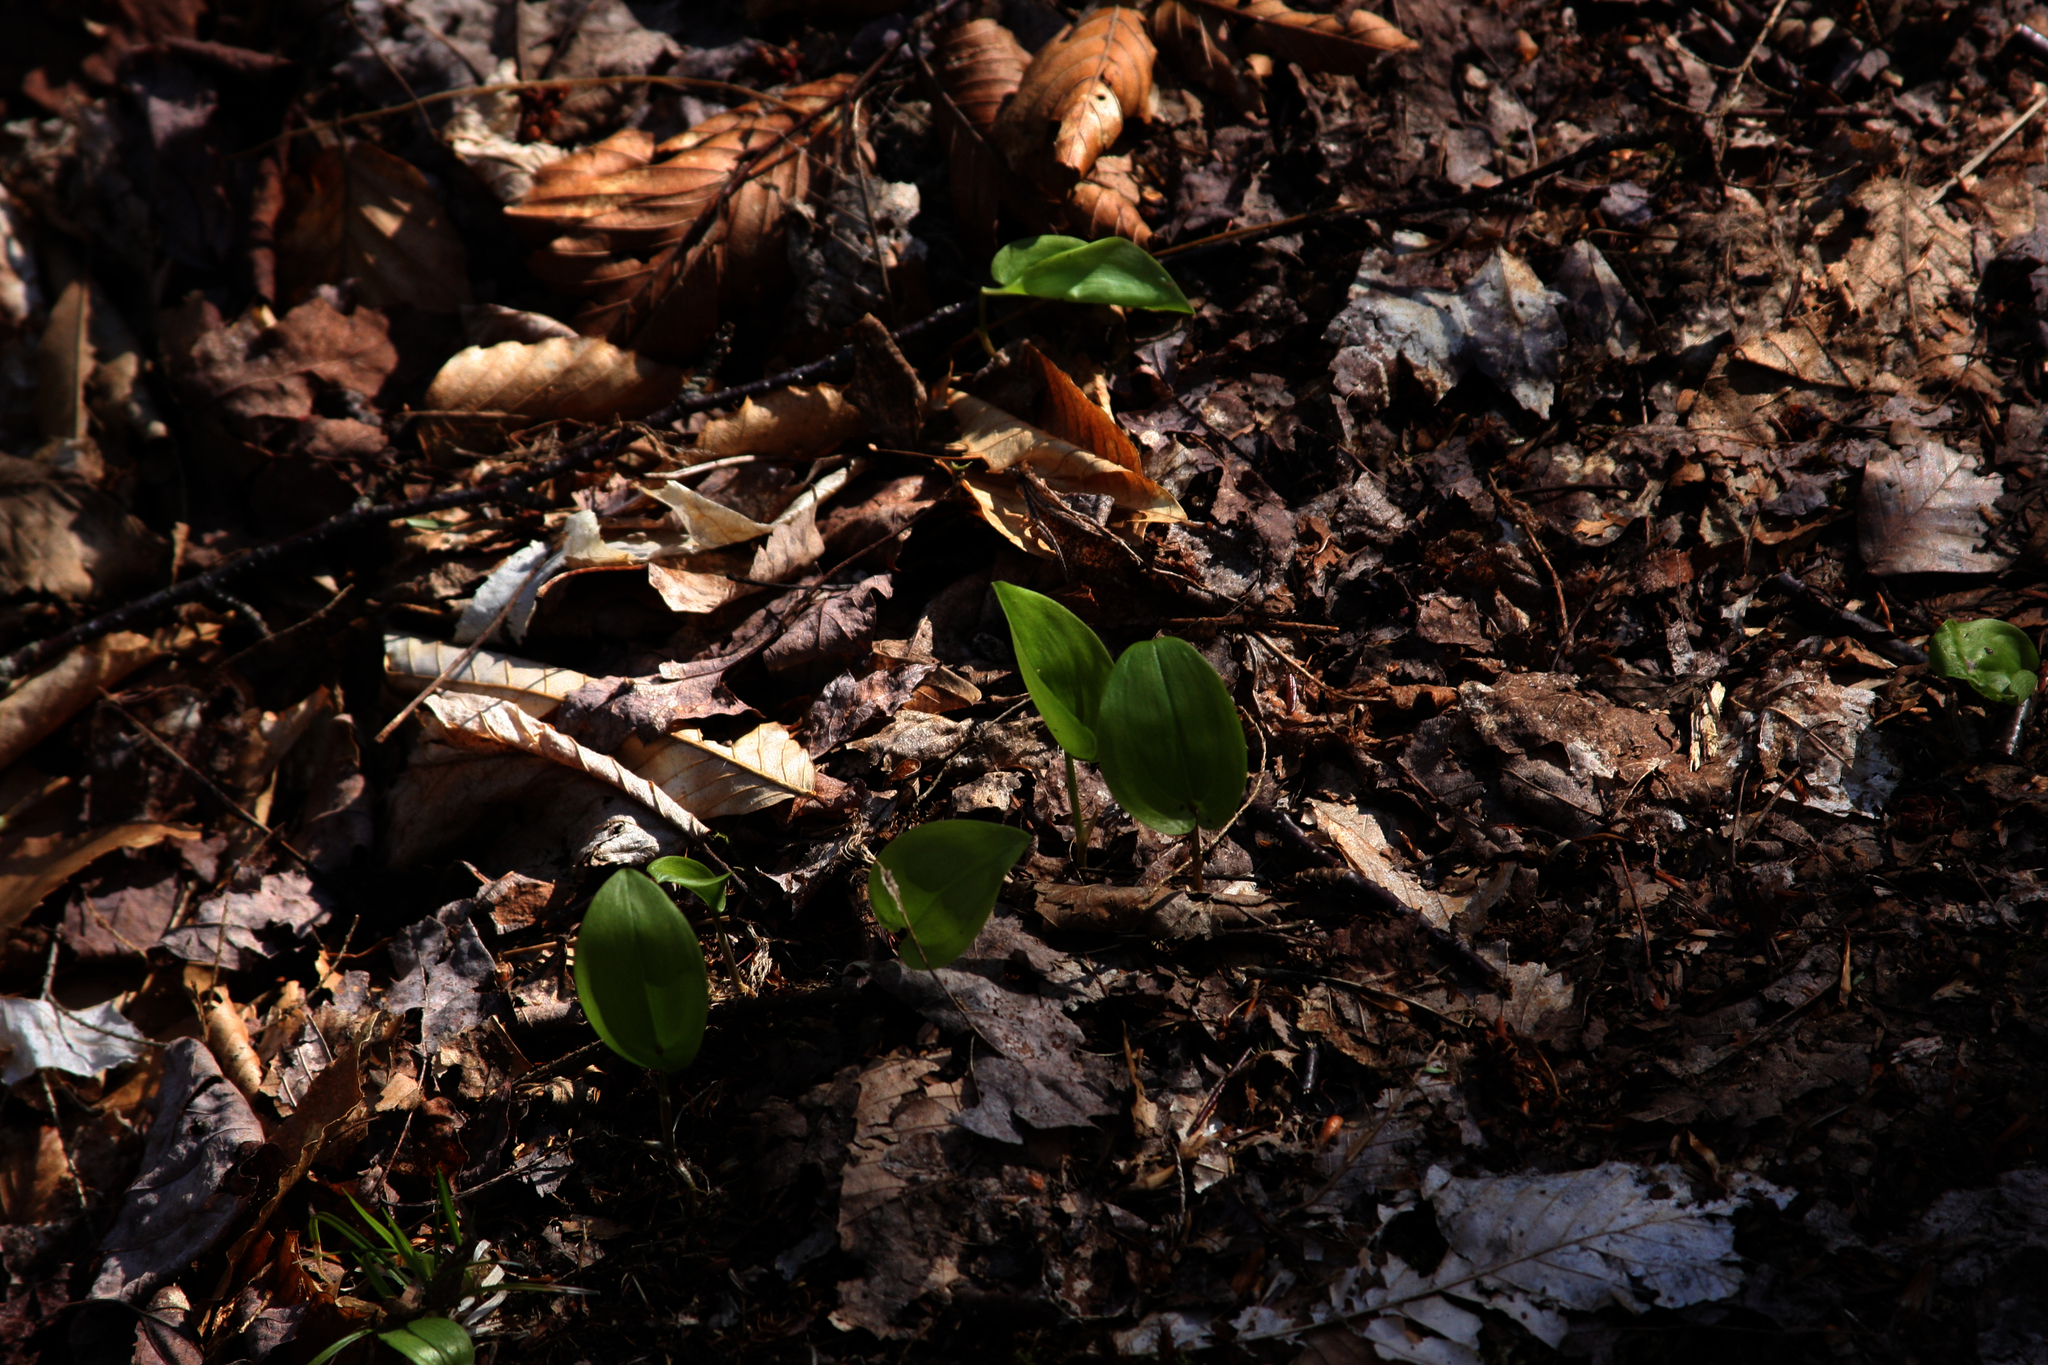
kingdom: Plantae
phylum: Tracheophyta
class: Liliopsida
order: Asparagales
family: Asparagaceae
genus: Maianthemum
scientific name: Maianthemum canadense
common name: False lily-of-the-valley
